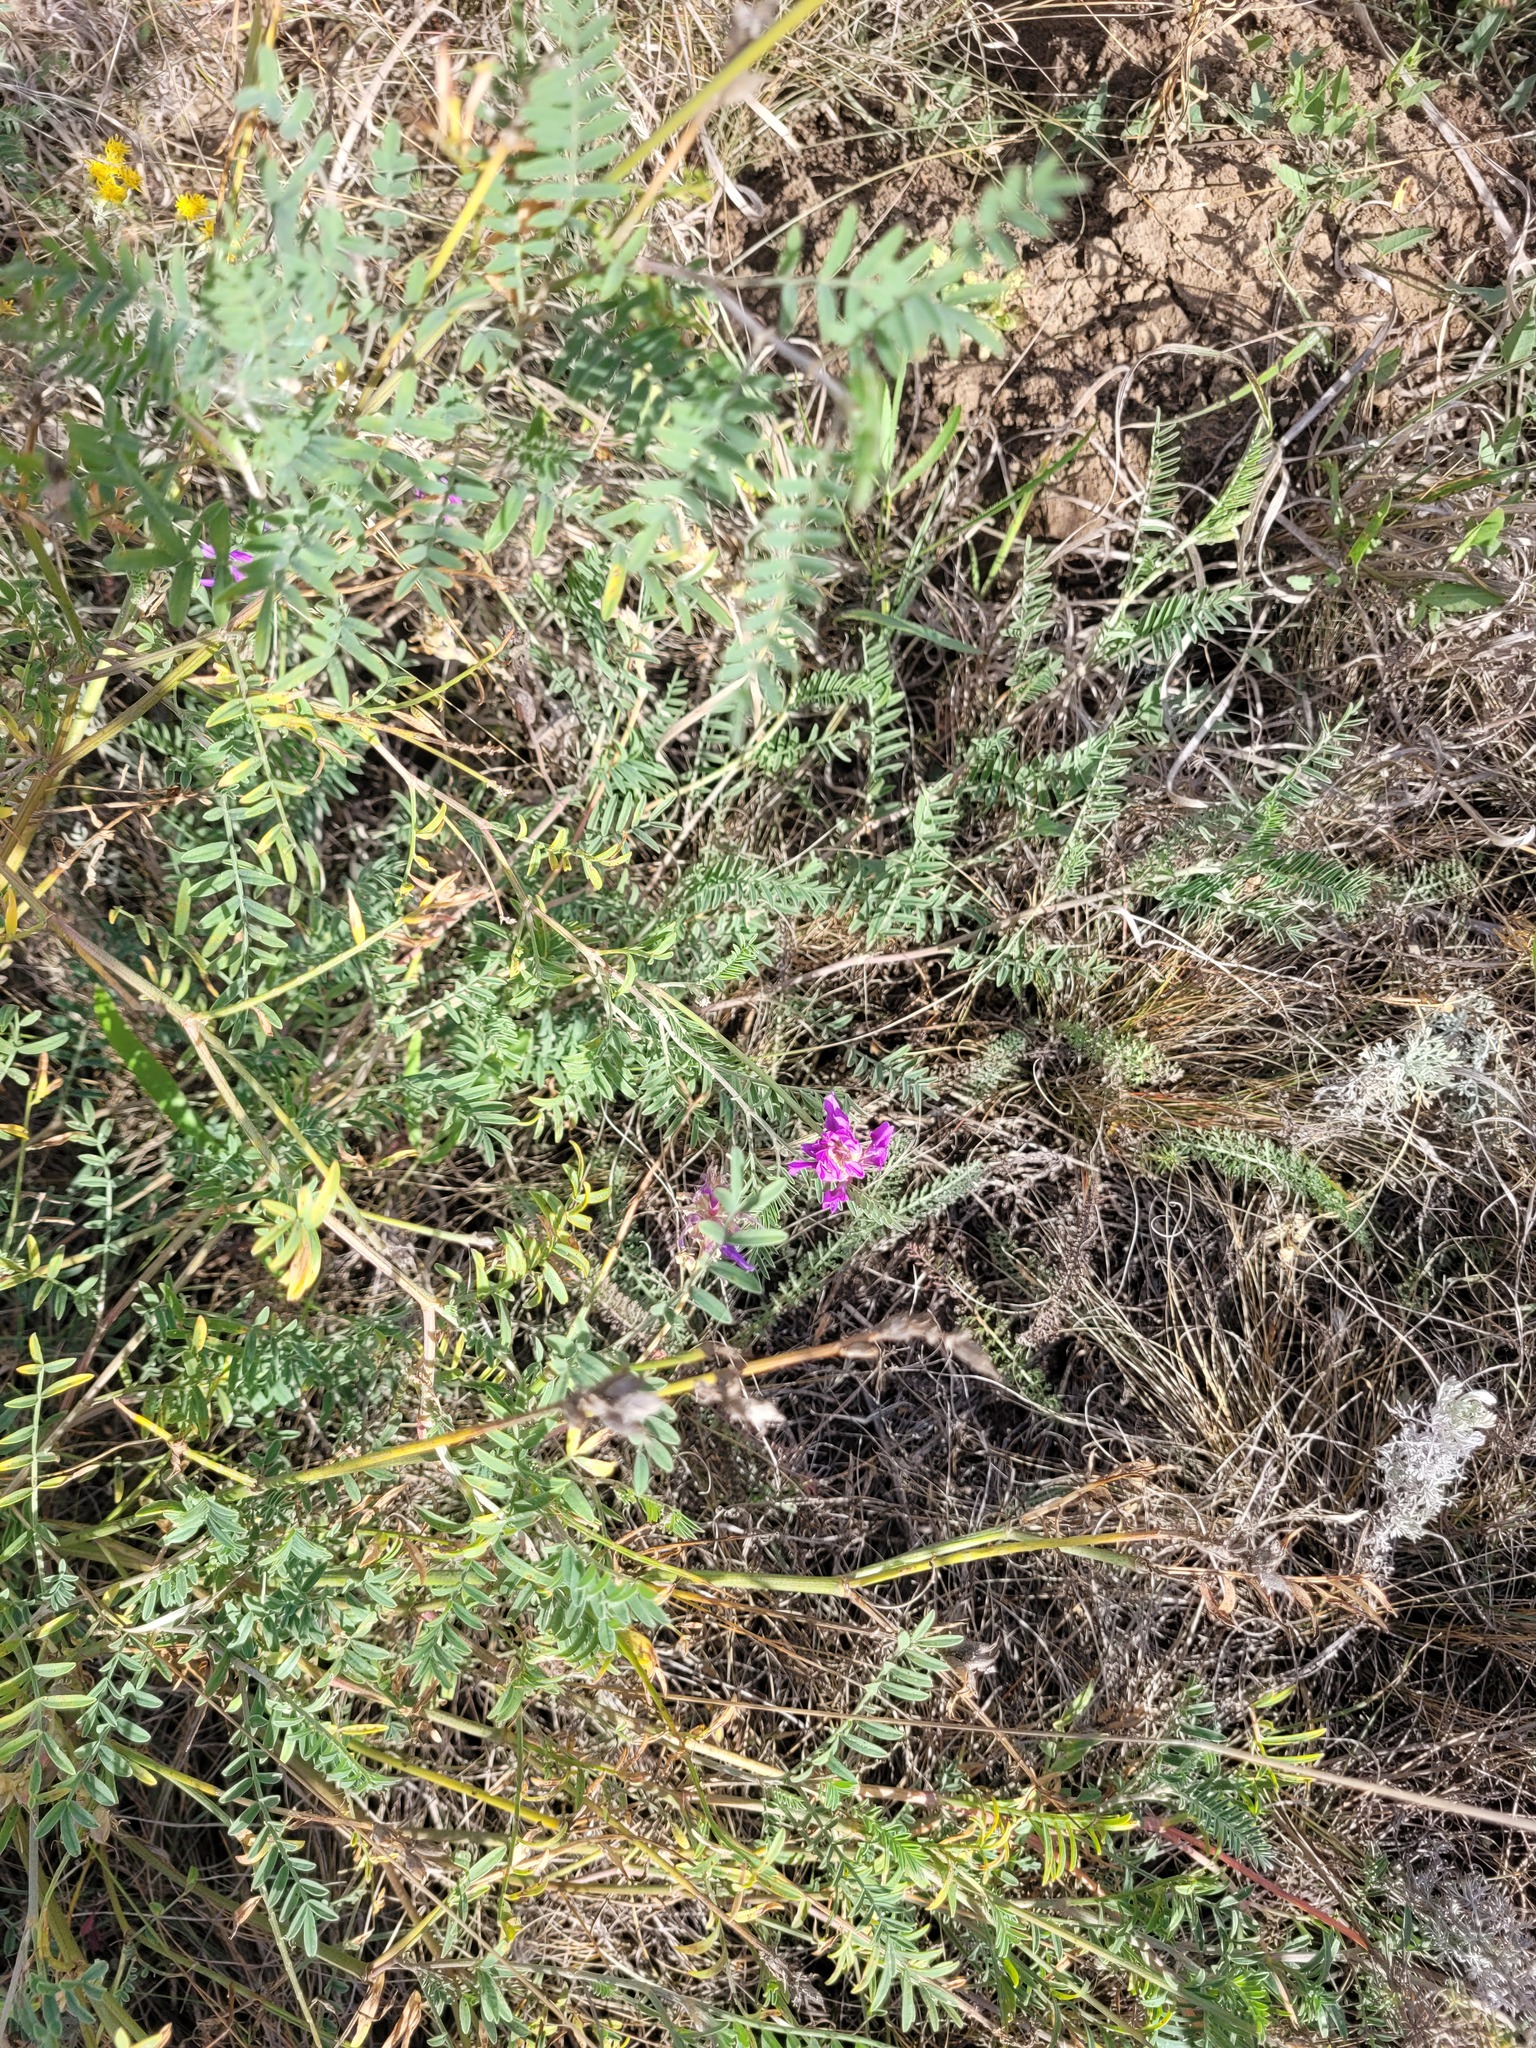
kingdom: Plantae
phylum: Tracheophyta
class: Magnoliopsida
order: Fabales
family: Fabaceae
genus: Astragalus
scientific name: Astragalus varius
